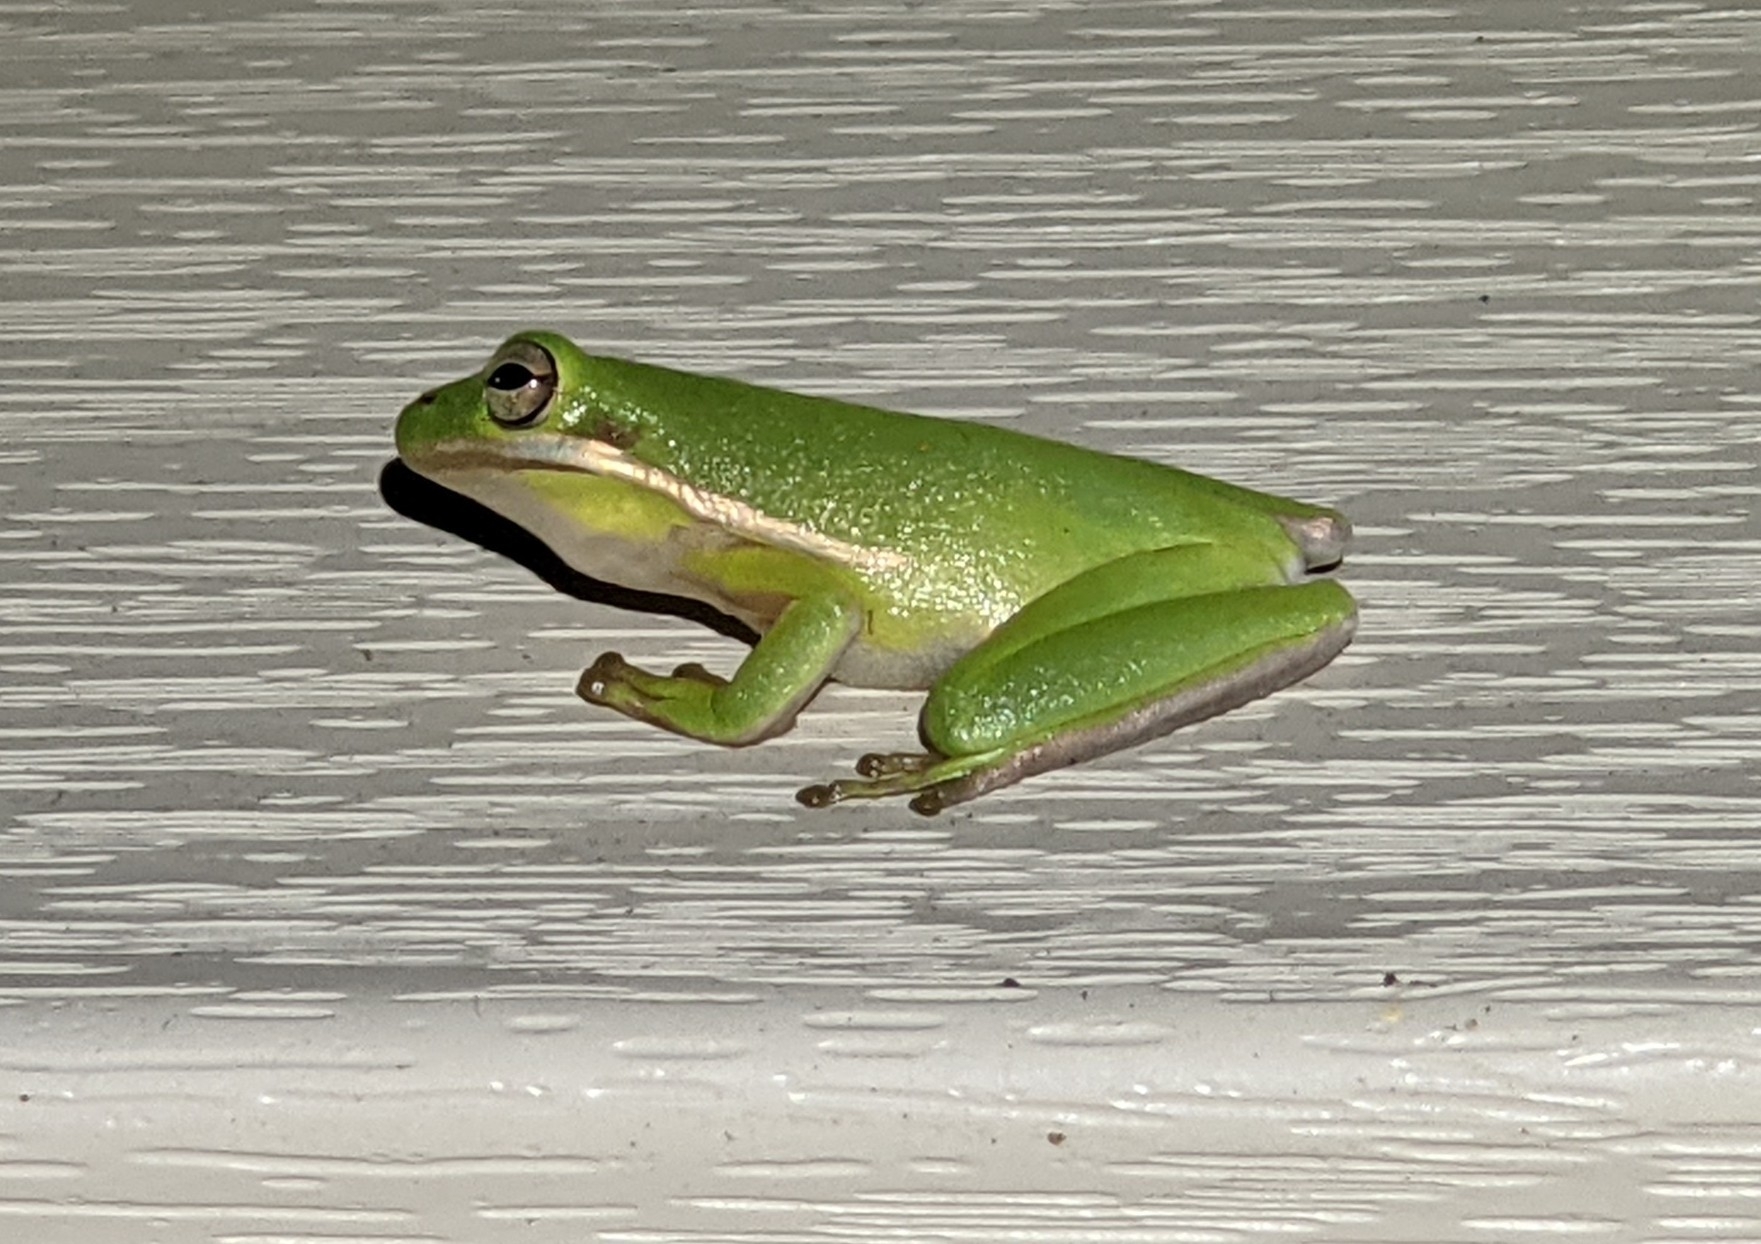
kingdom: Animalia
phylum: Chordata
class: Amphibia
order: Anura
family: Hylidae
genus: Dryophytes
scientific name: Dryophytes cinereus
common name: Green treefrog
